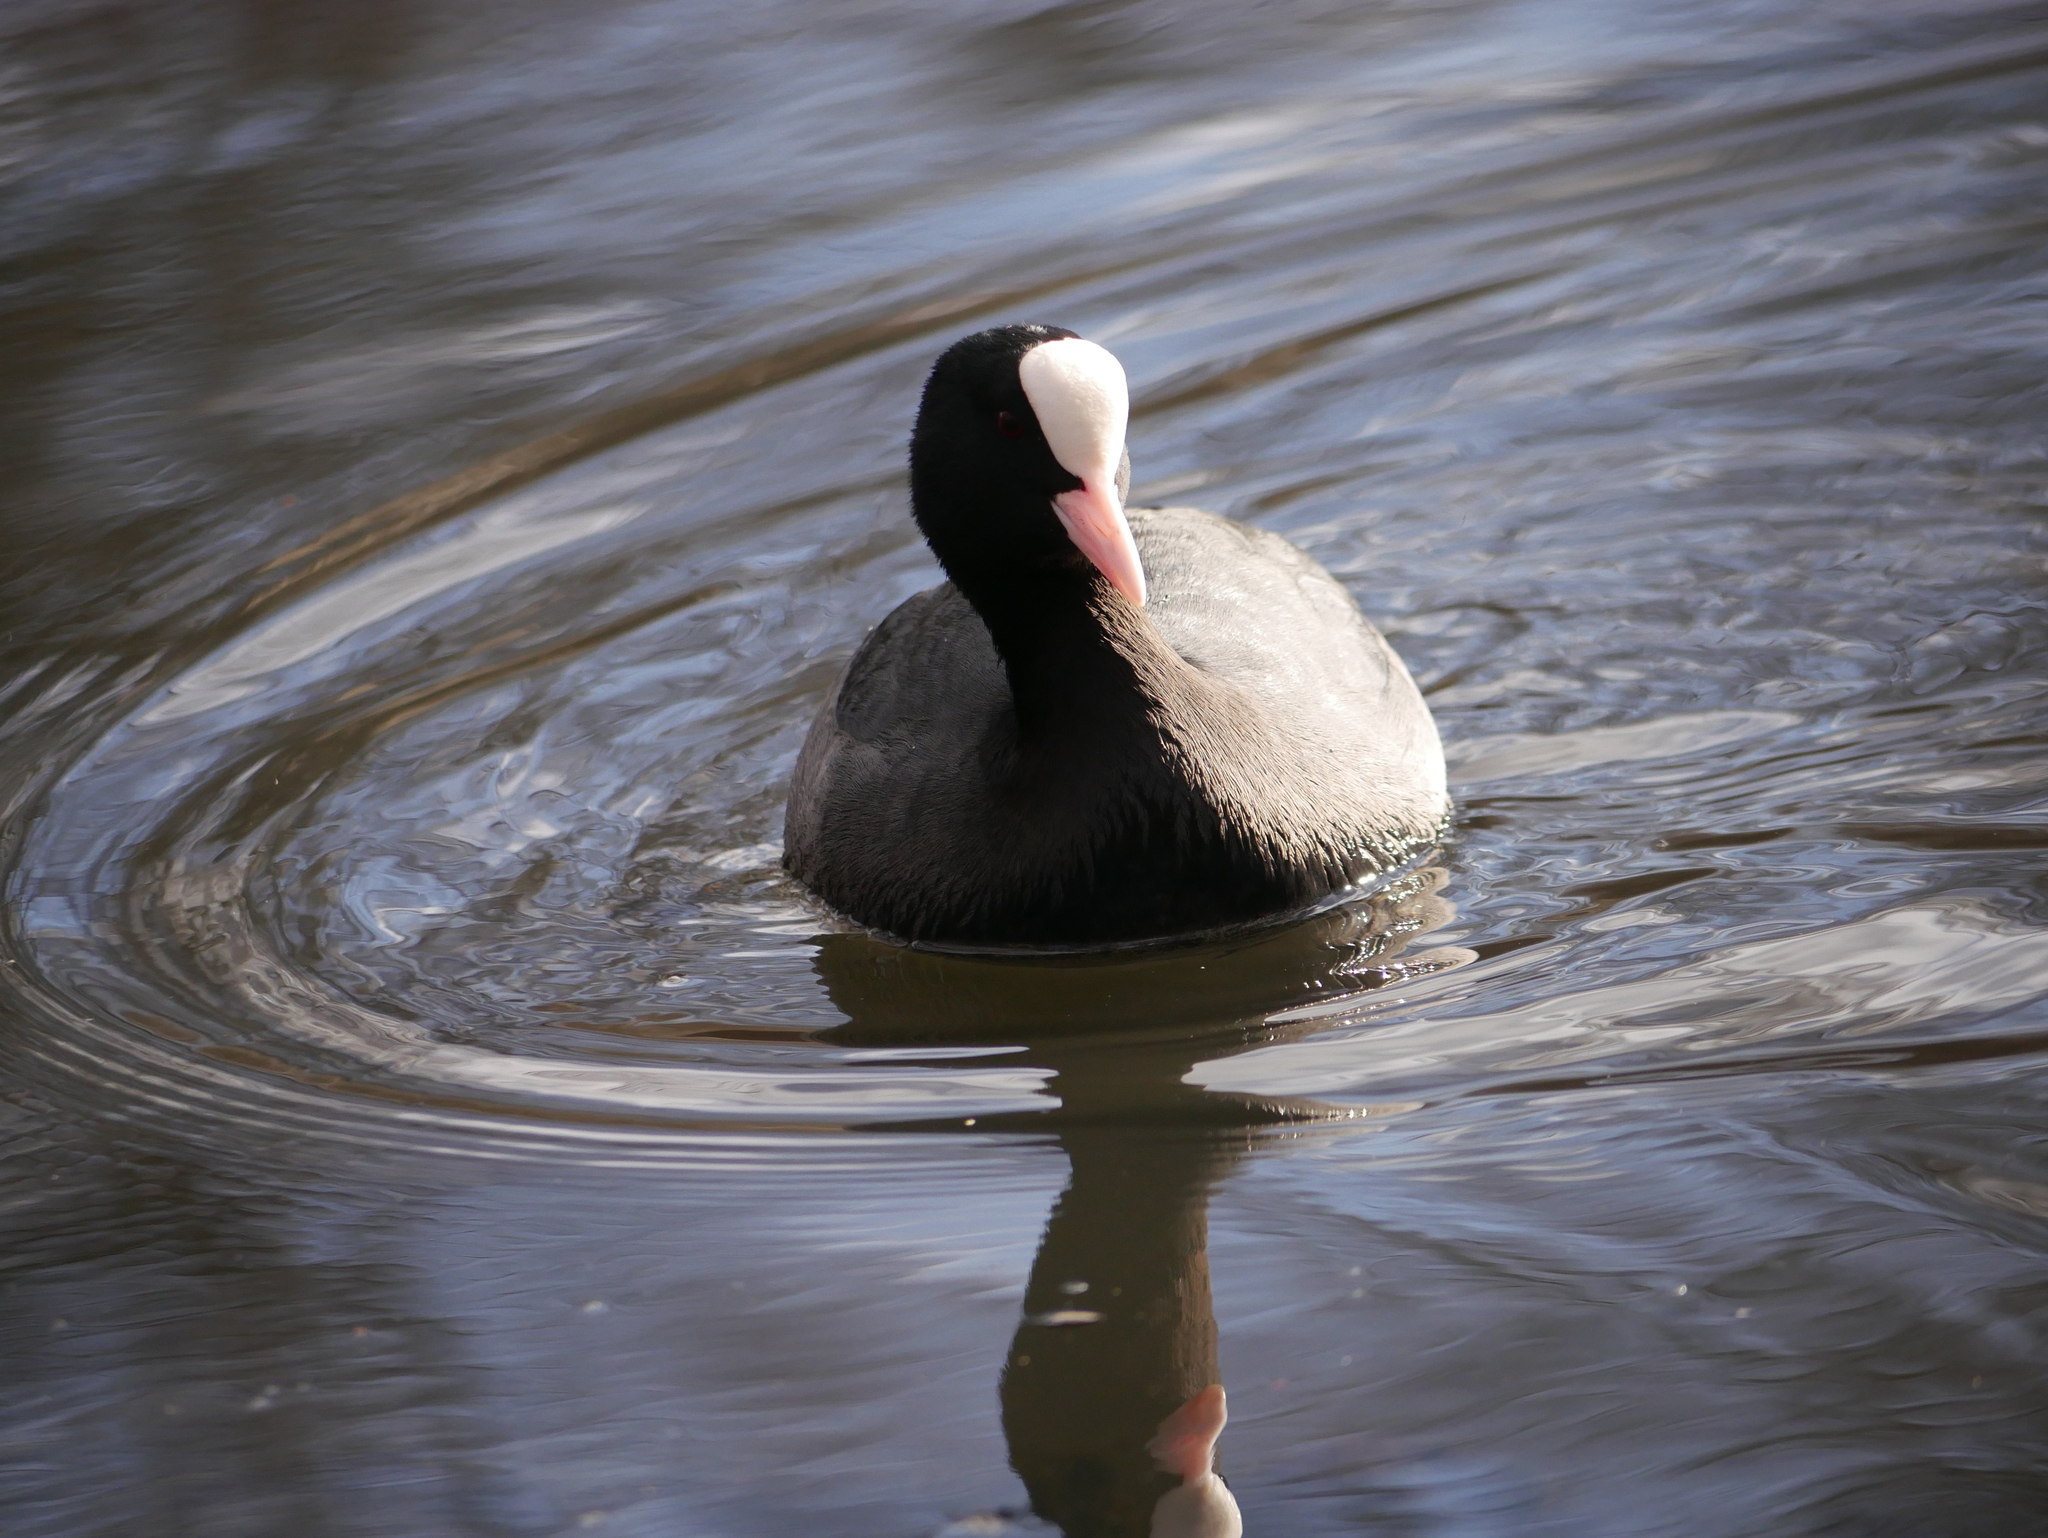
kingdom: Animalia
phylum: Chordata
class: Aves
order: Gruiformes
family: Rallidae
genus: Fulica
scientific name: Fulica atra
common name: Eurasian coot
